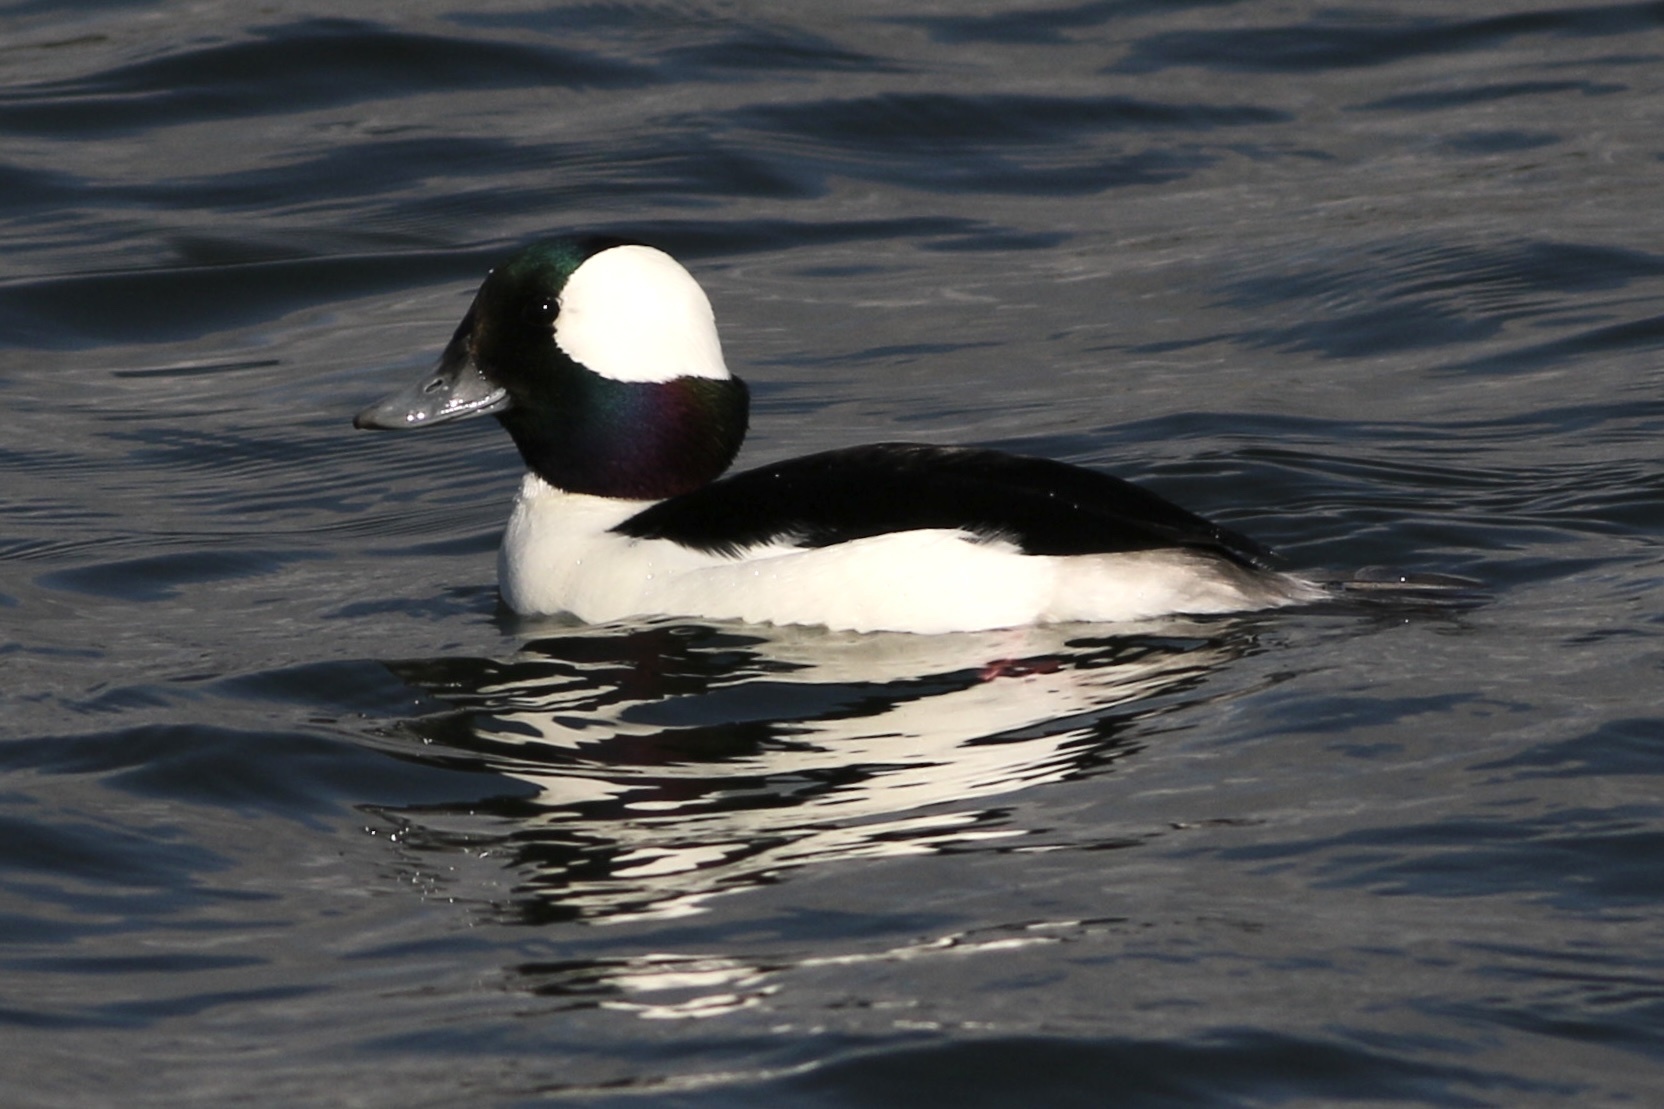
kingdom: Animalia
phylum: Chordata
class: Aves
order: Anseriformes
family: Anatidae
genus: Bucephala
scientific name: Bucephala albeola
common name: Bufflehead
